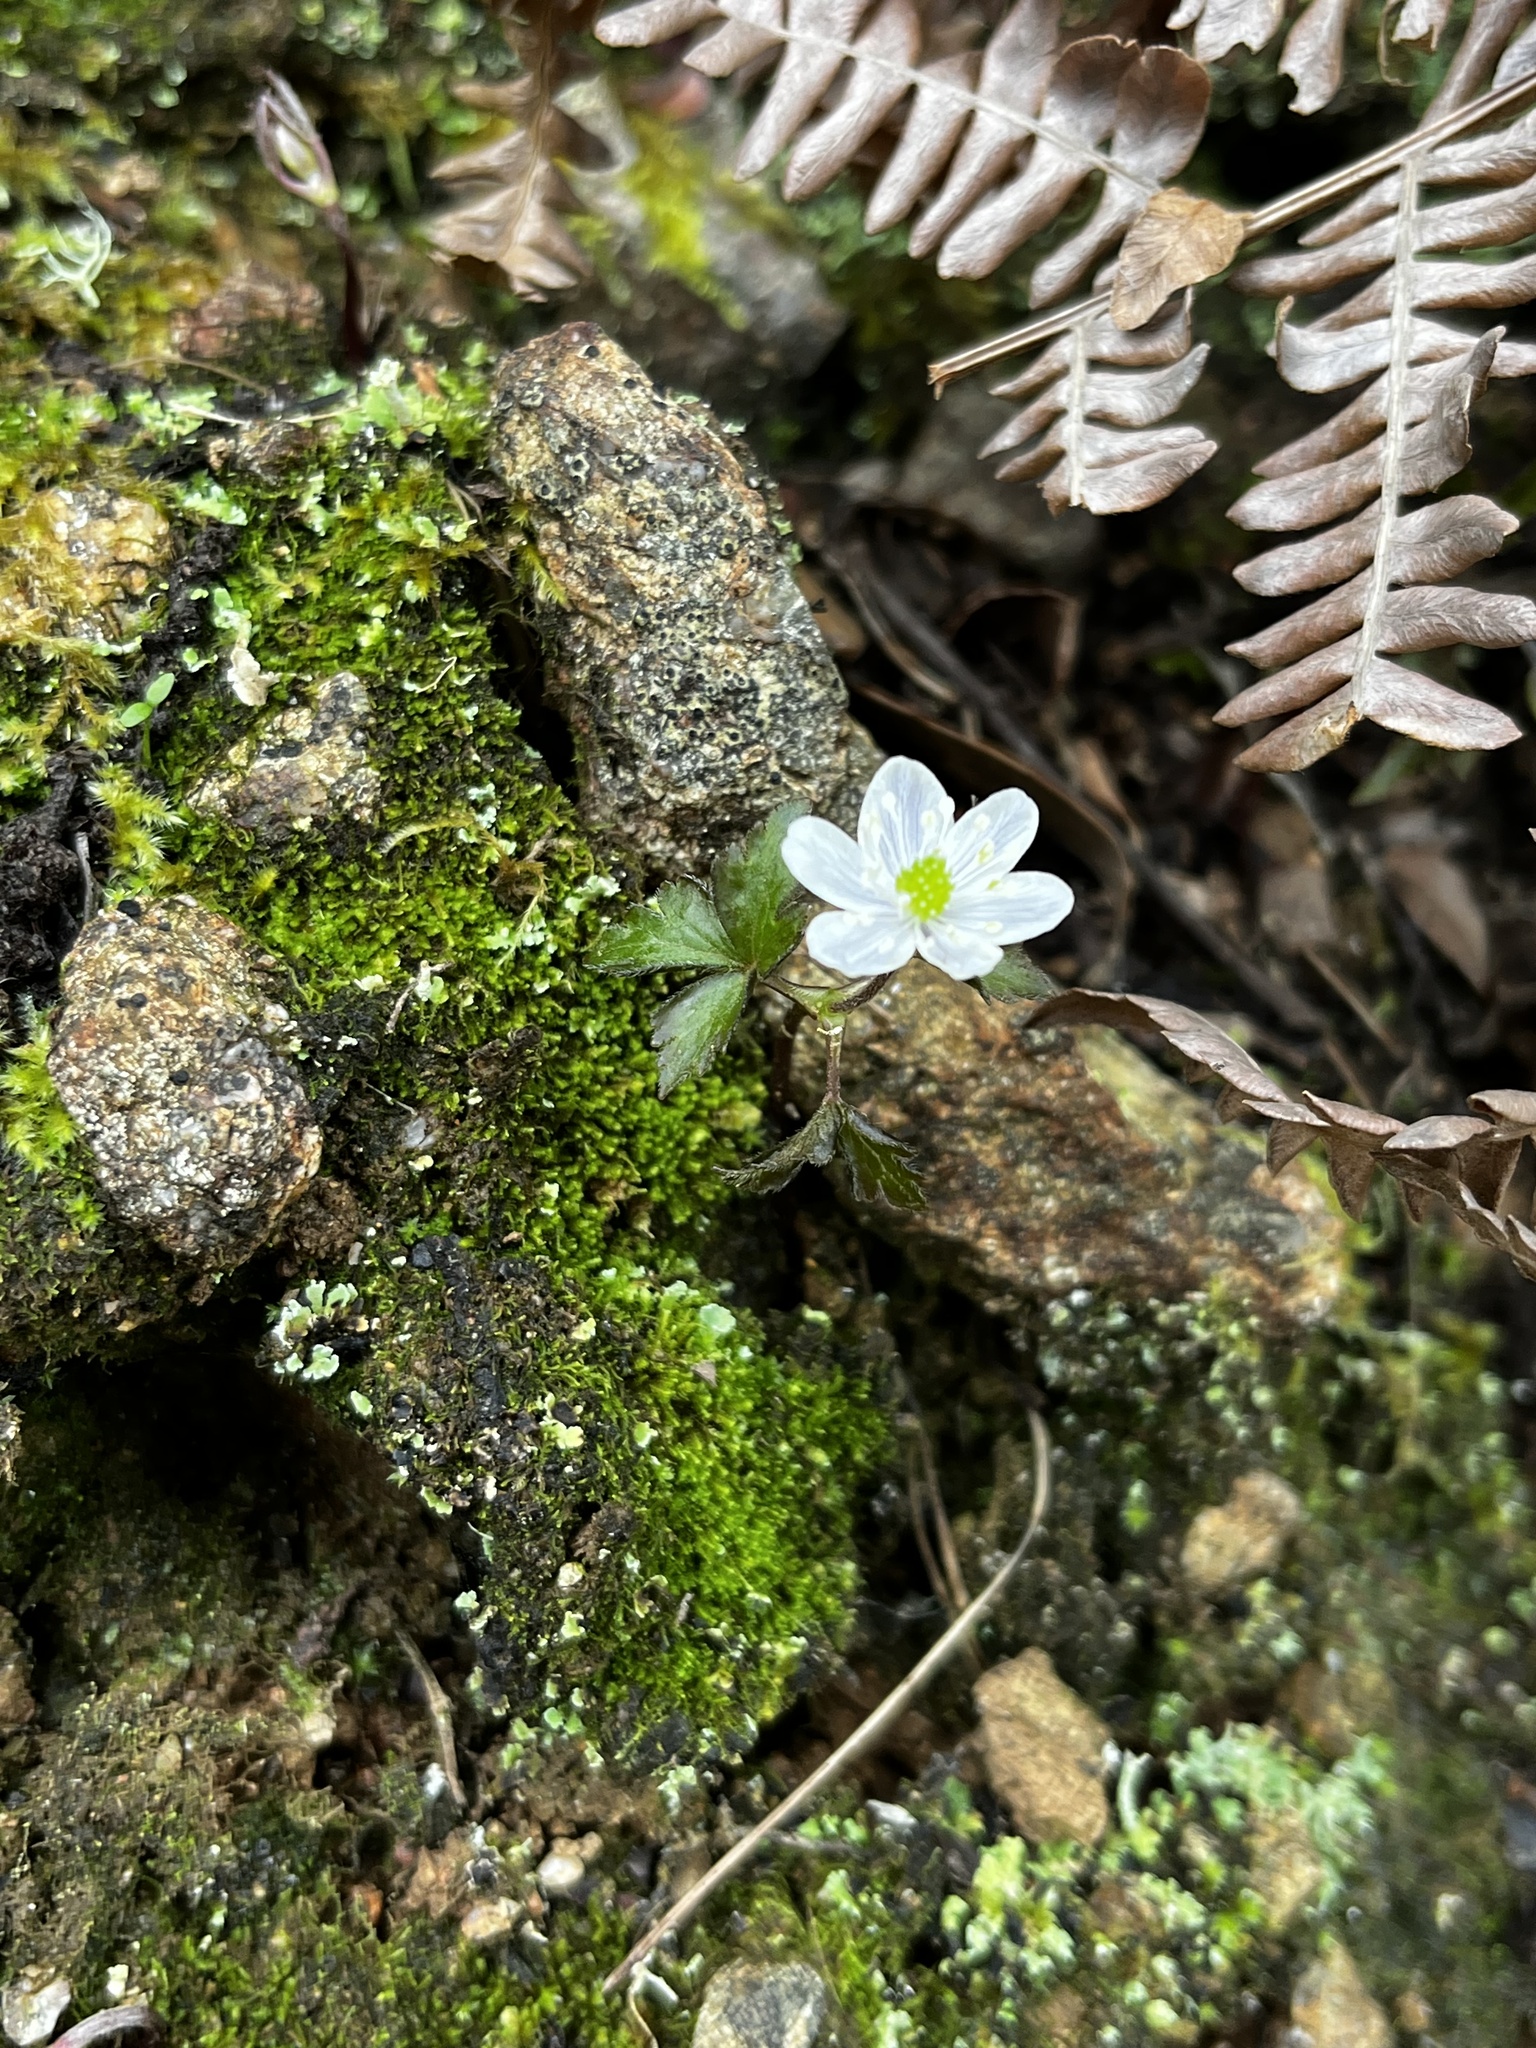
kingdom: Plantae
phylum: Tracheophyta
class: Magnoliopsida
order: Ranunculales
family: Ranunculaceae
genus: Anemone
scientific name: Anemone
